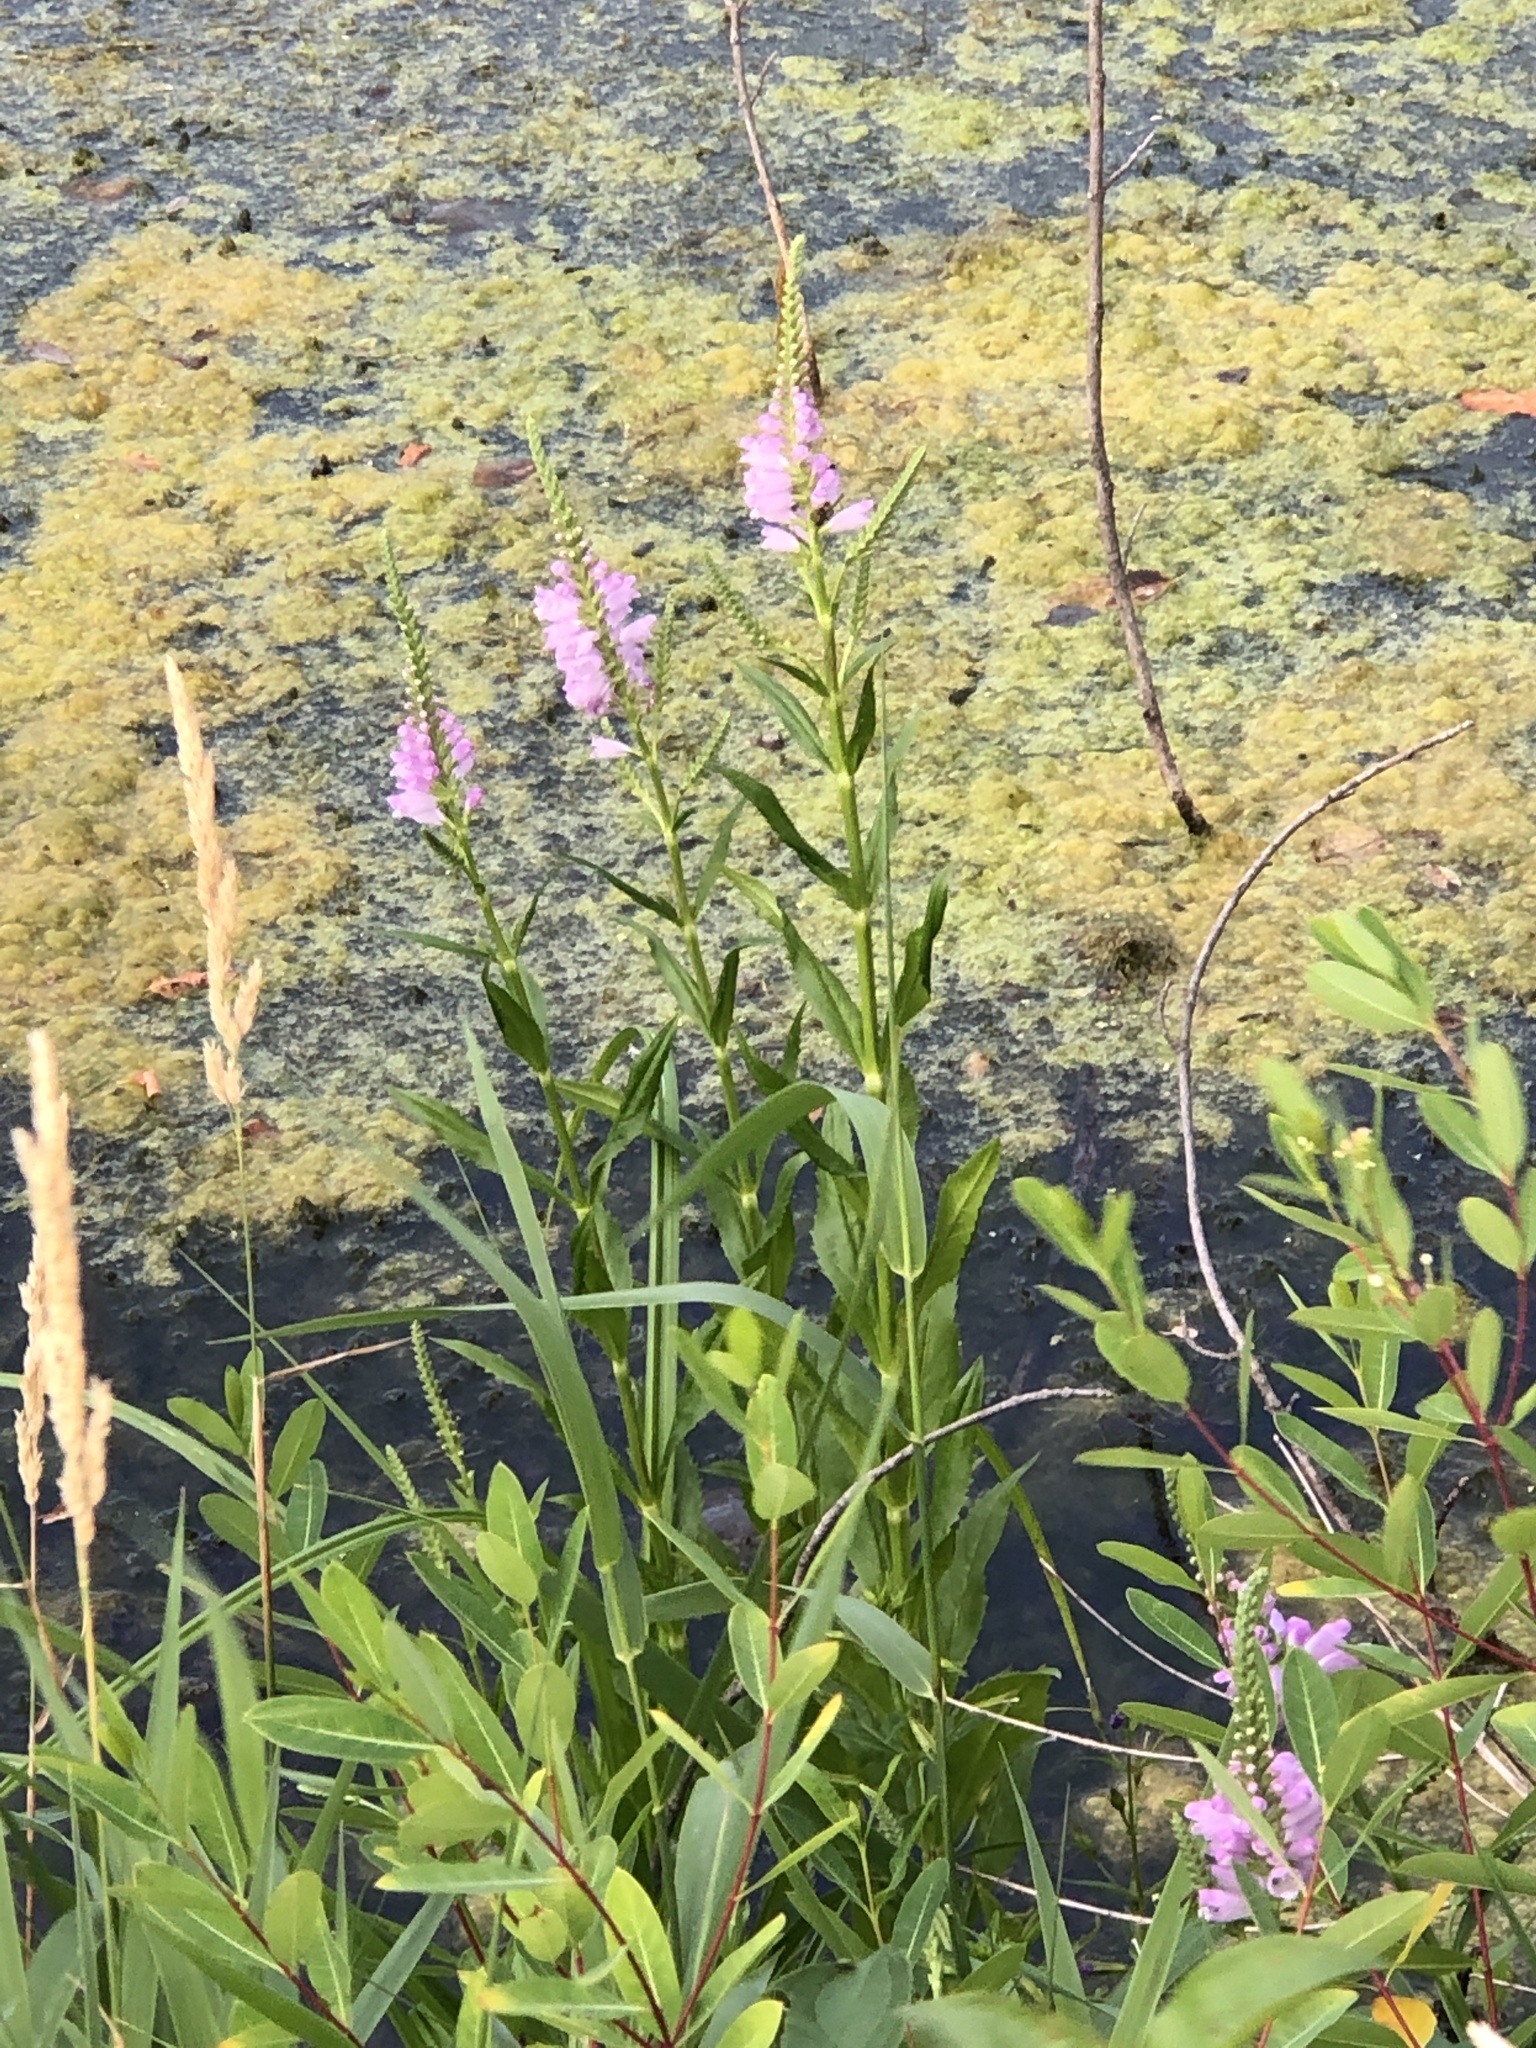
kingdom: Plantae
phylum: Tracheophyta
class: Magnoliopsida
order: Lamiales
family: Lamiaceae
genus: Physostegia
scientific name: Physostegia virginiana
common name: Obedient-plant
